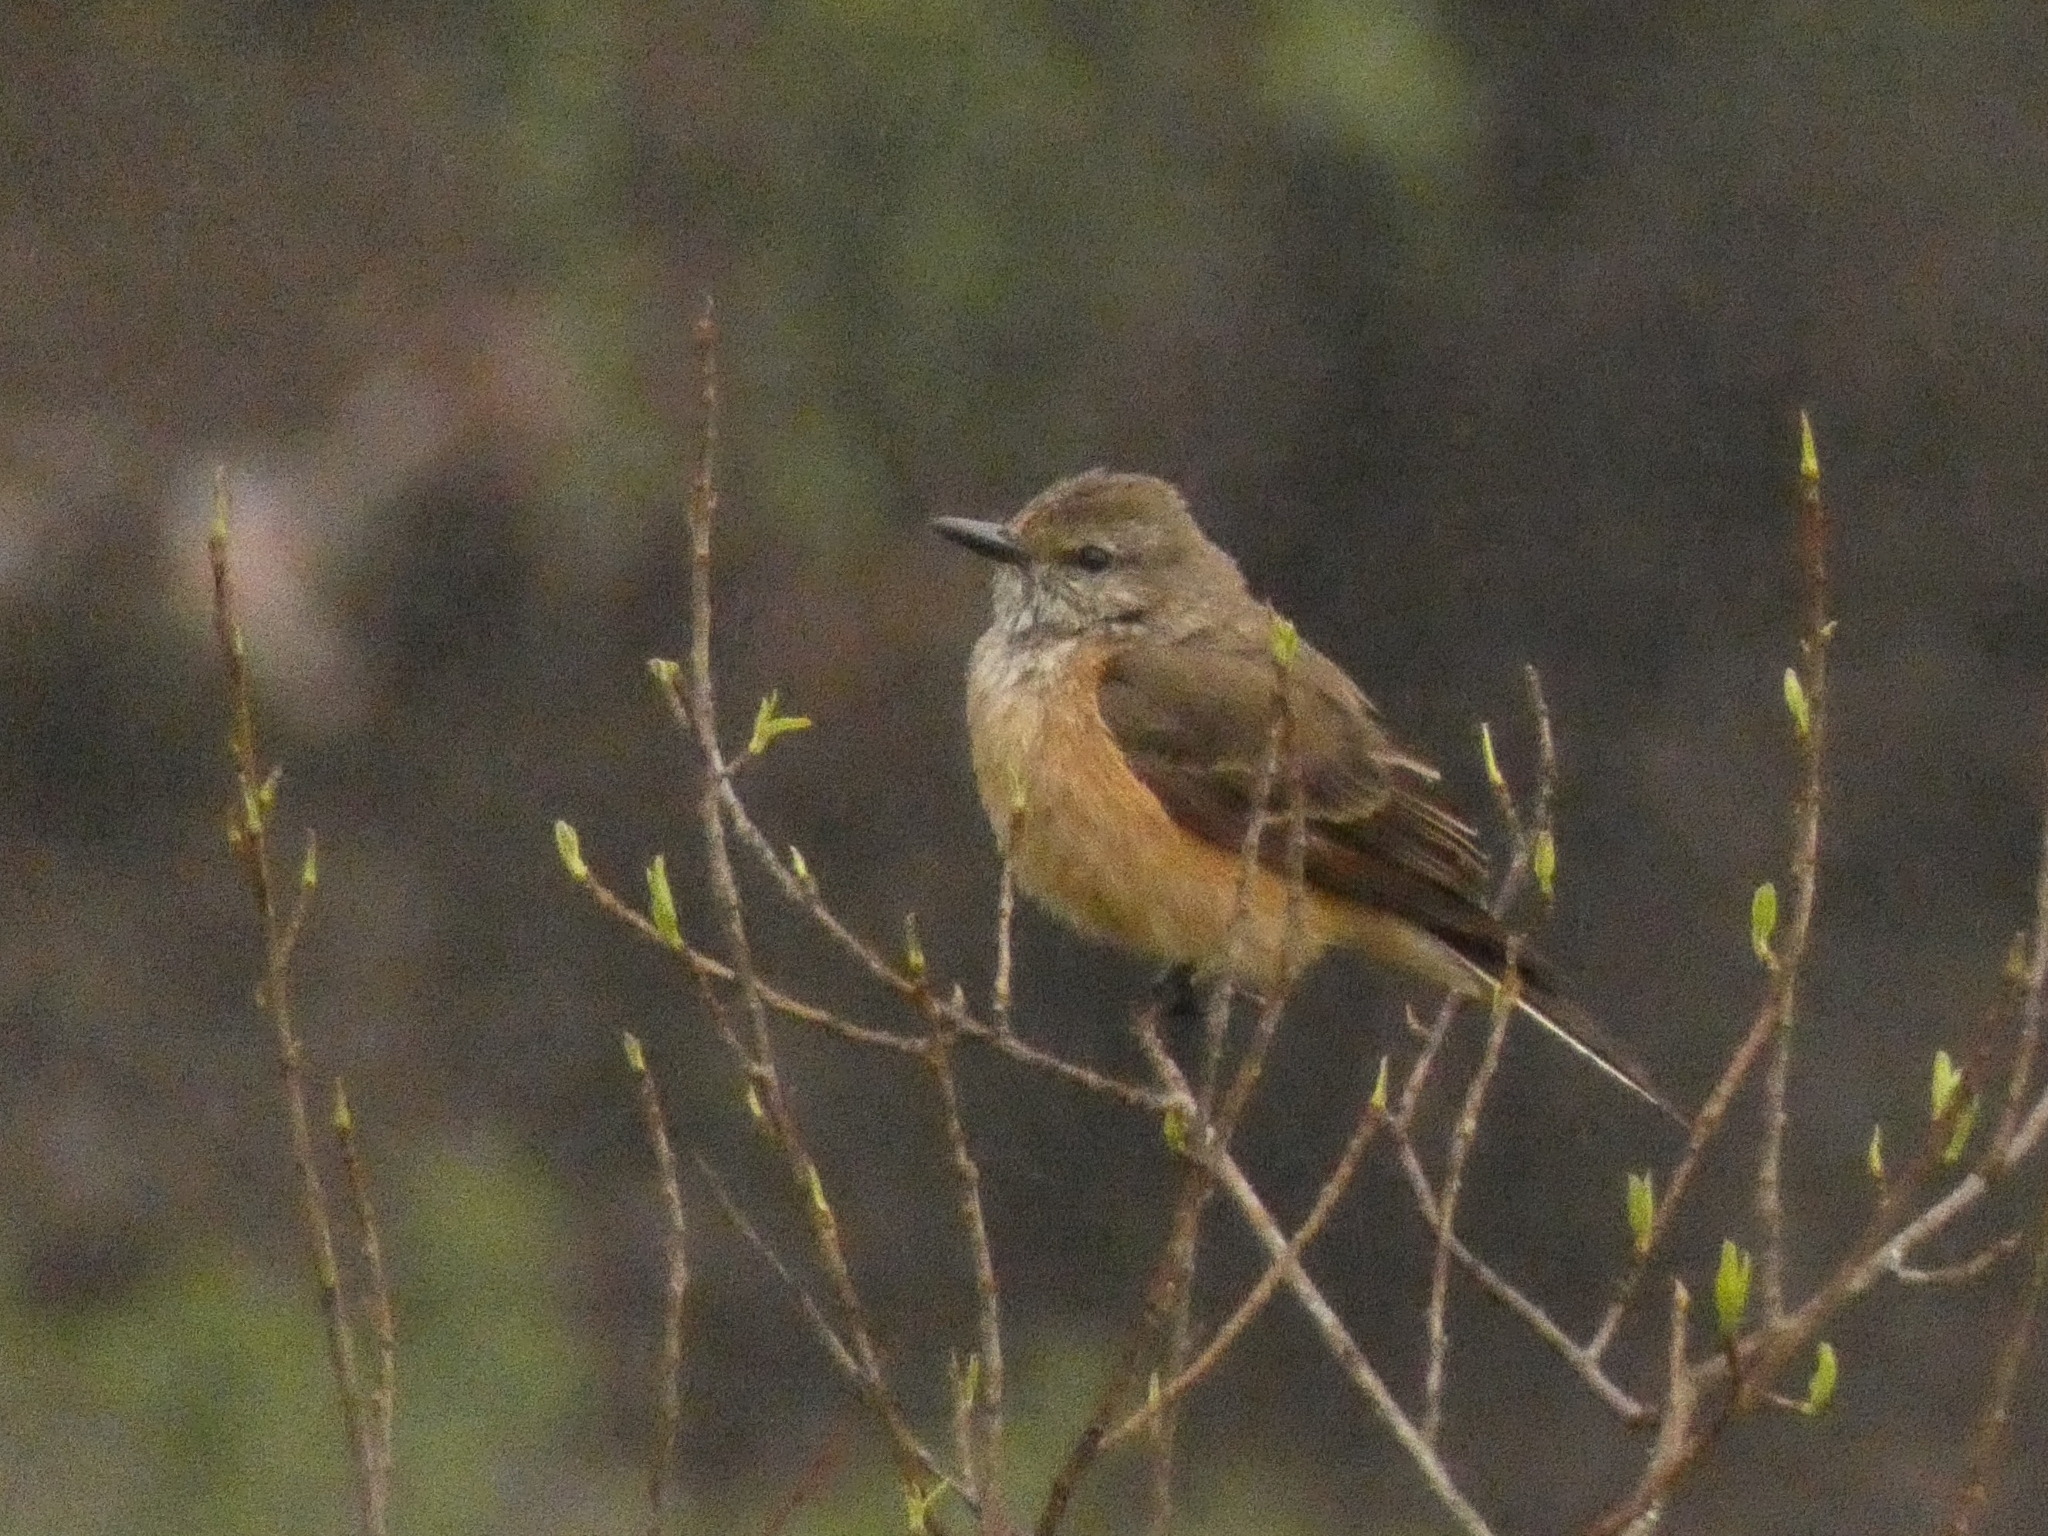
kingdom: Animalia
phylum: Chordata
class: Aves
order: Passeriformes
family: Tyrannidae
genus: Myiotheretes
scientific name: Myiotheretes striaticollis
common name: Streak-throated bush tyrant
